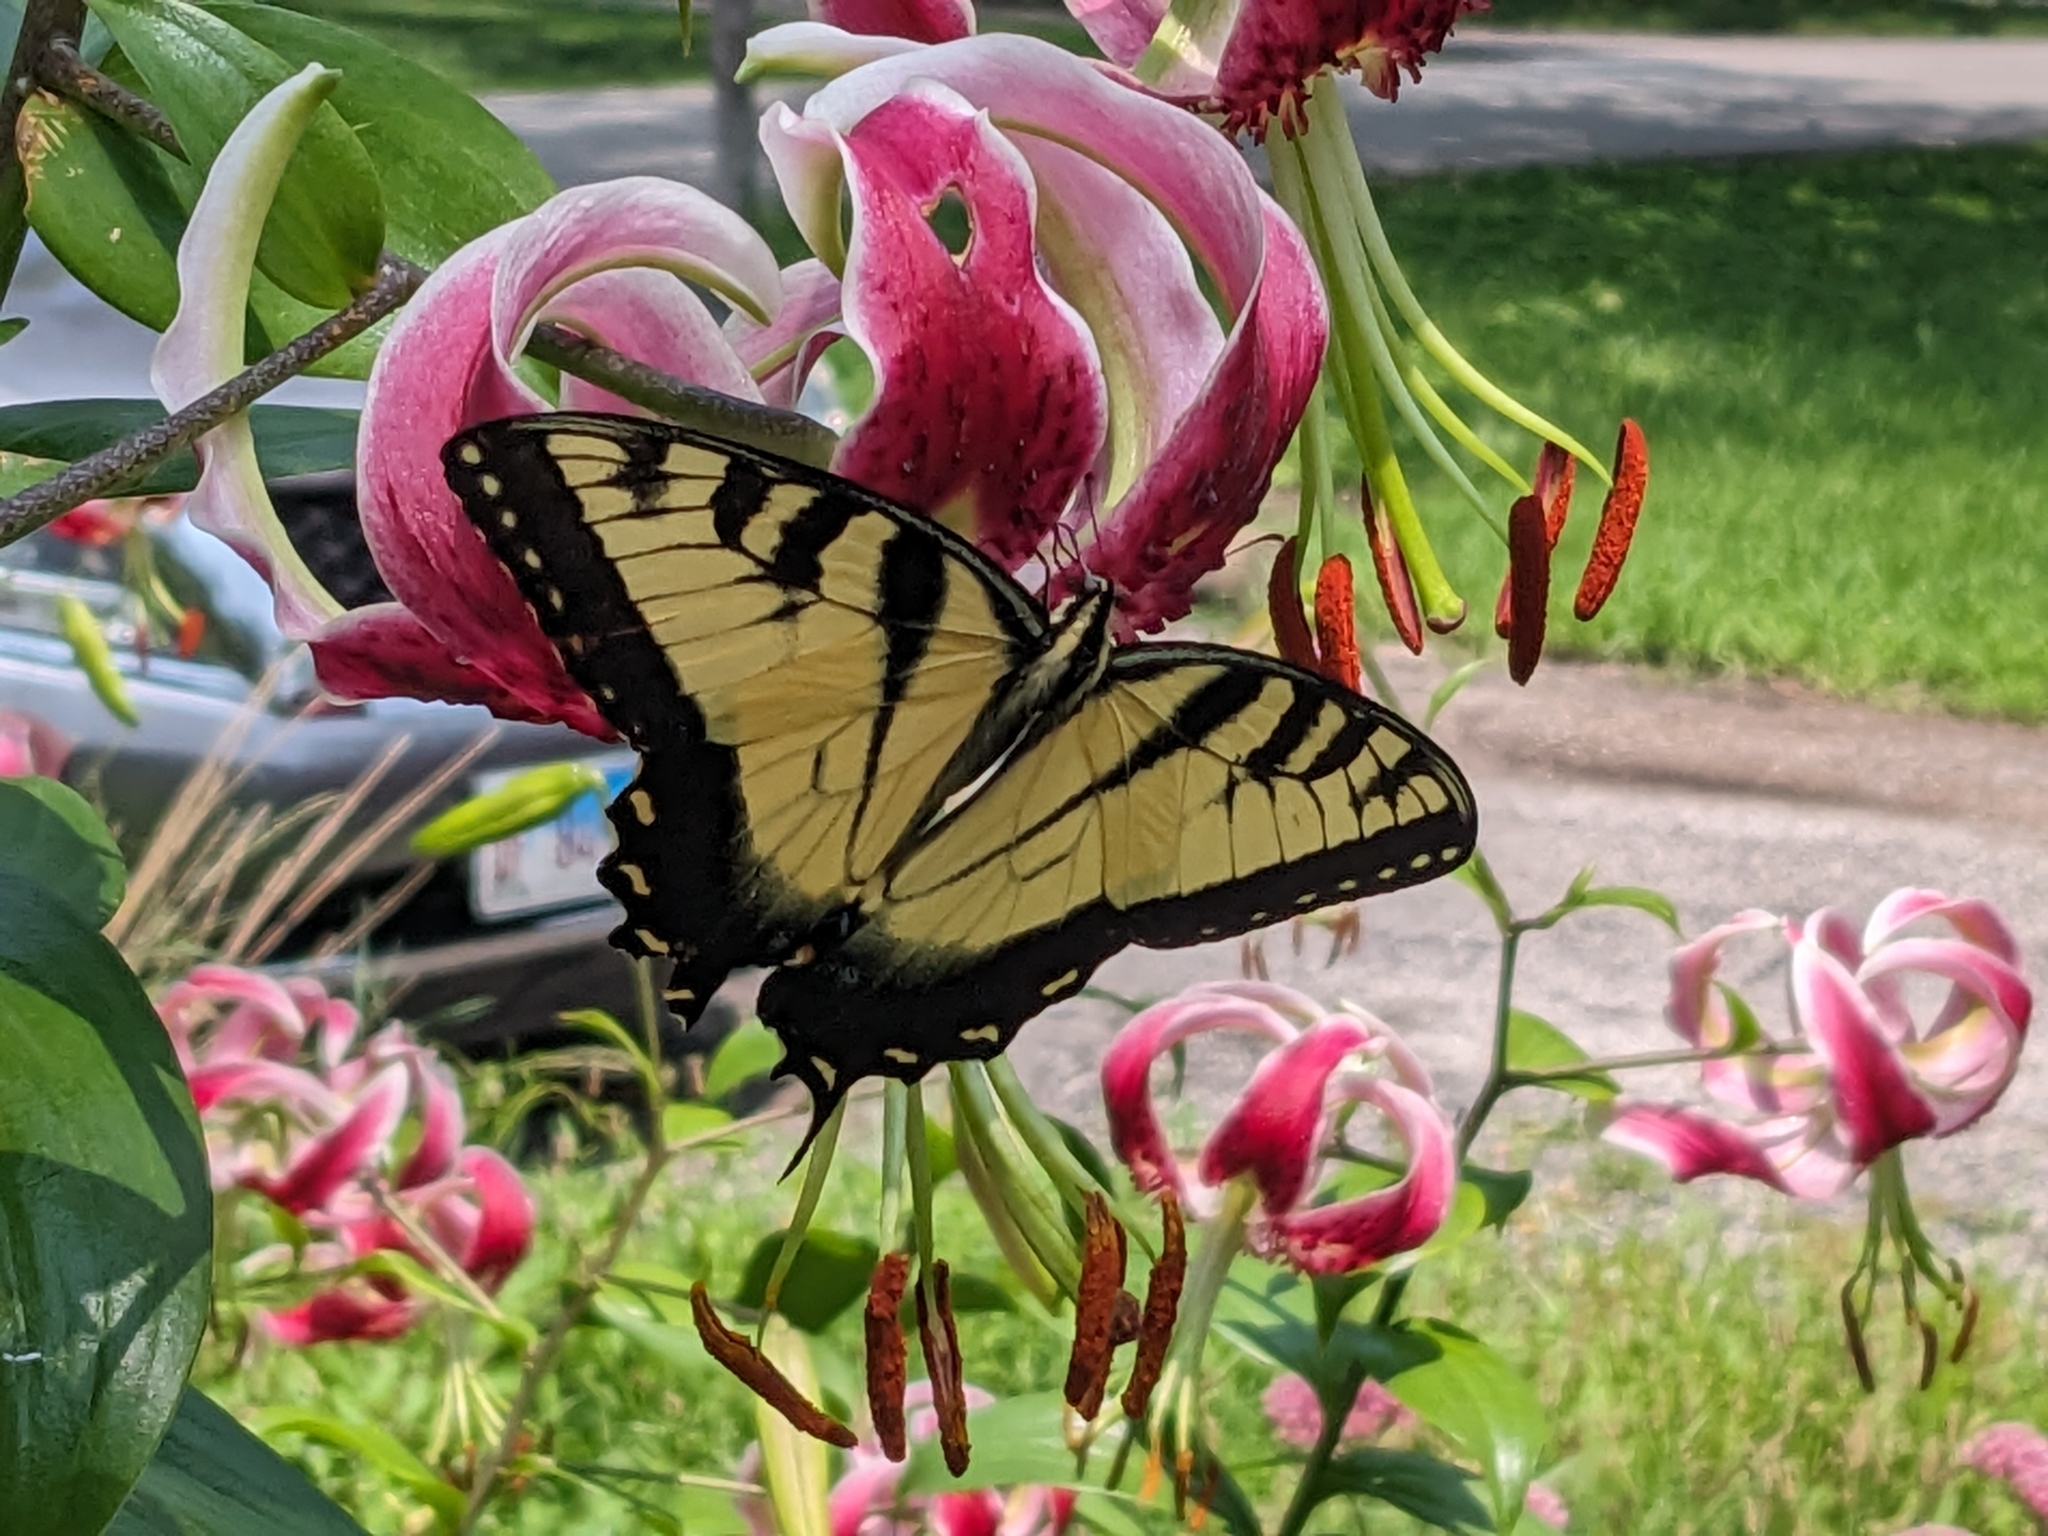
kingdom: Animalia
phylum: Arthropoda
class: Insecta
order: Lepidoptera
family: Papilionidae
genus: Papilio
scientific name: Papilio glaucus
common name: Tiger swallowtail
